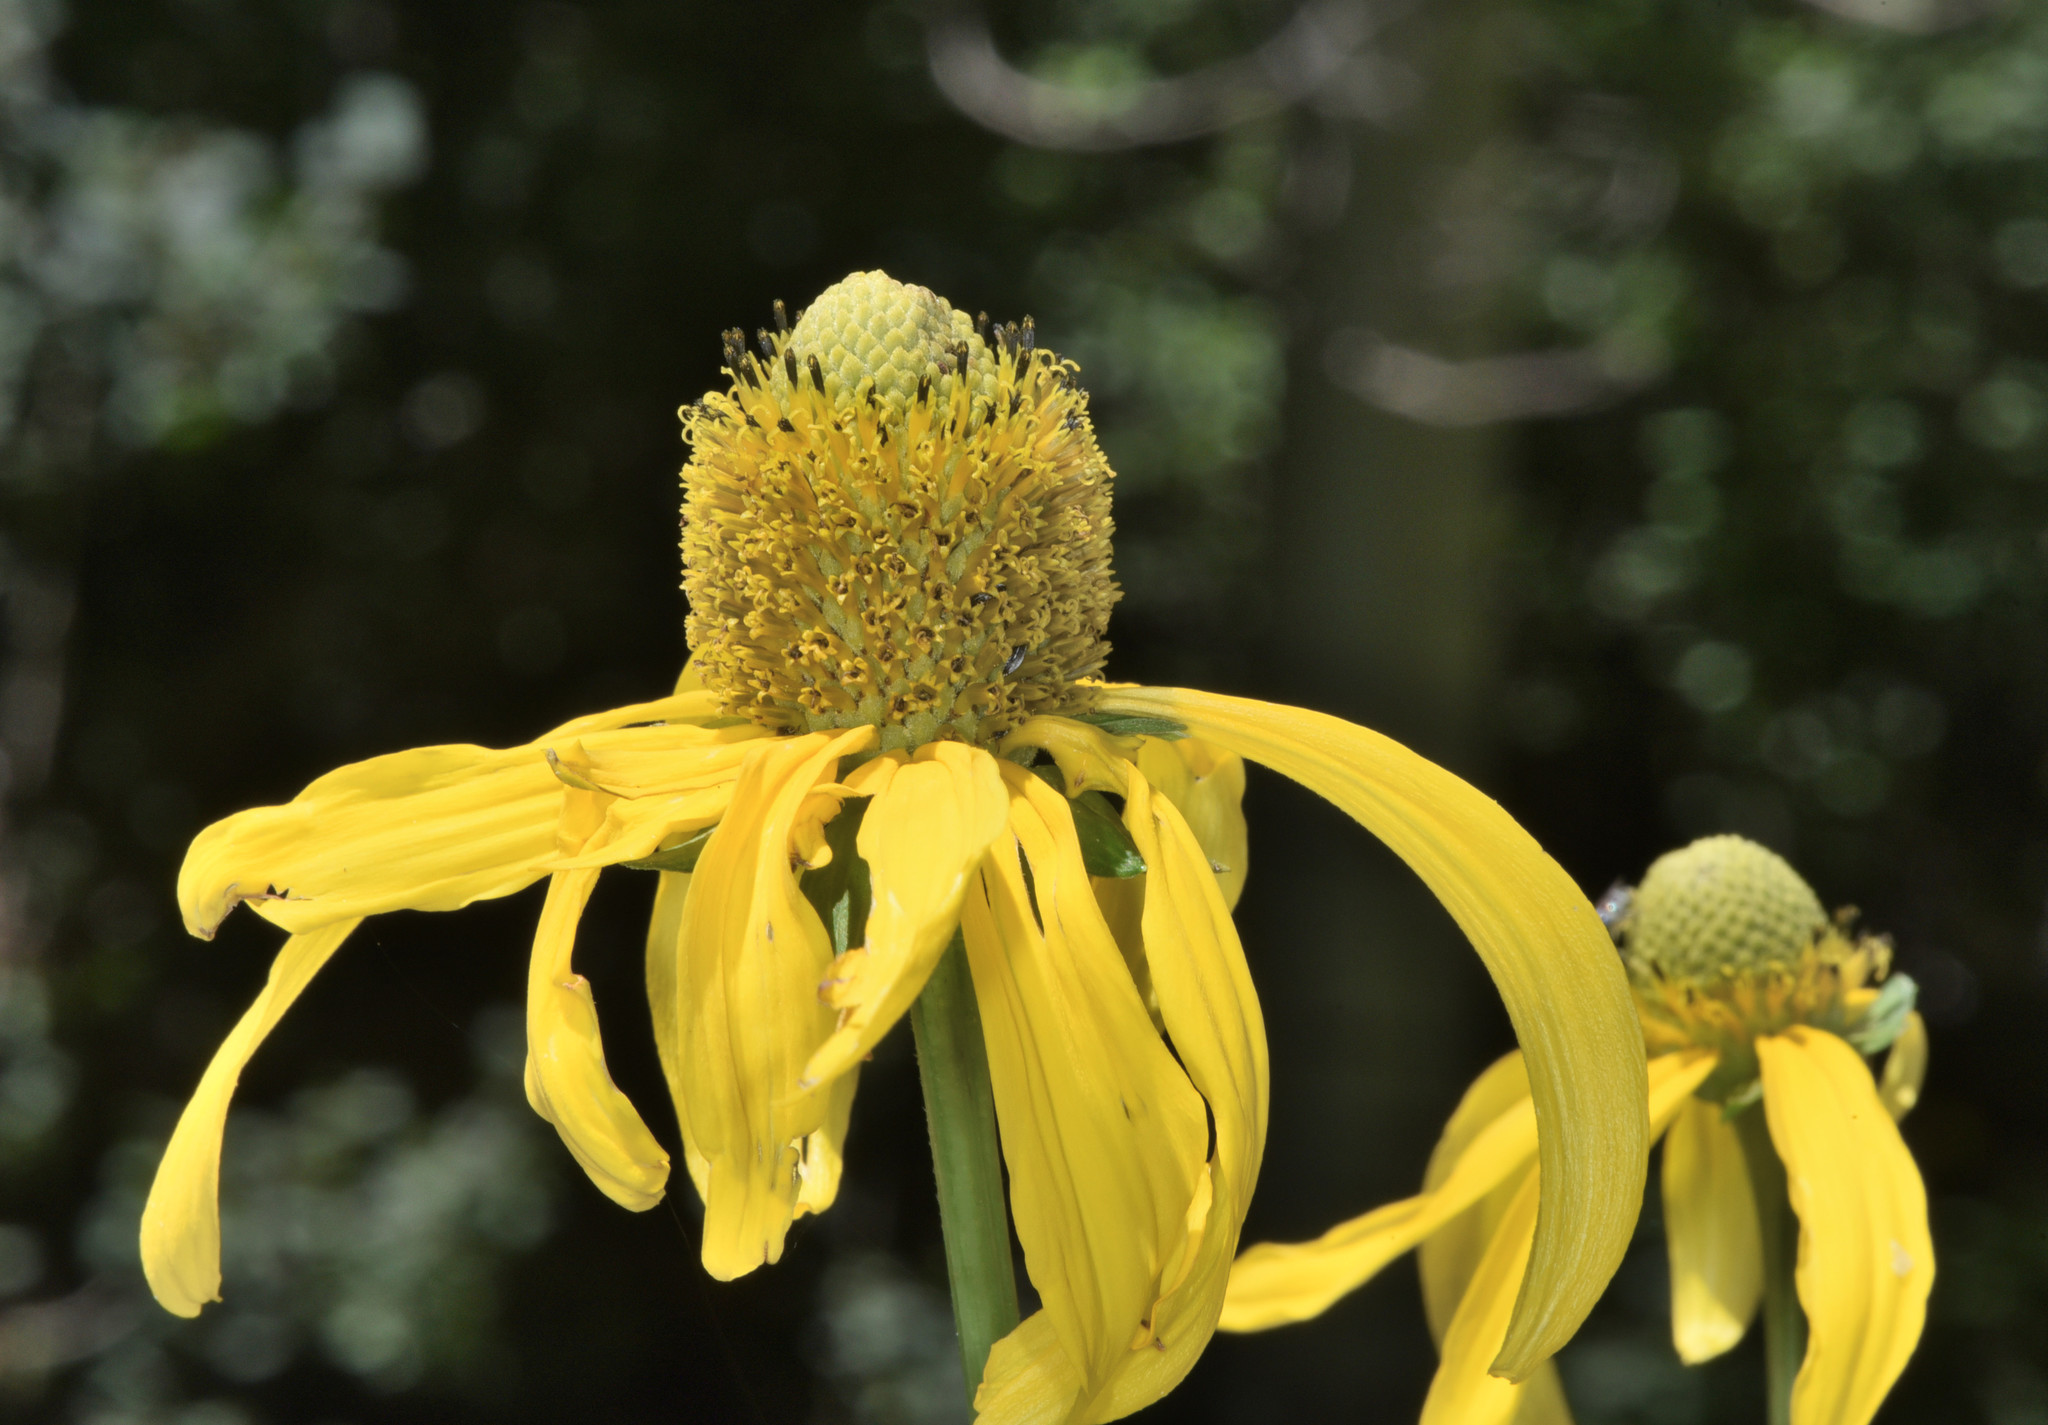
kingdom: Plantae
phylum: Tracheophyta
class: Magnoliopsida
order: Asterales
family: Asteraceae
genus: Rudbeckia
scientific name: Rudbeckia laciniata
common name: Coneflower
